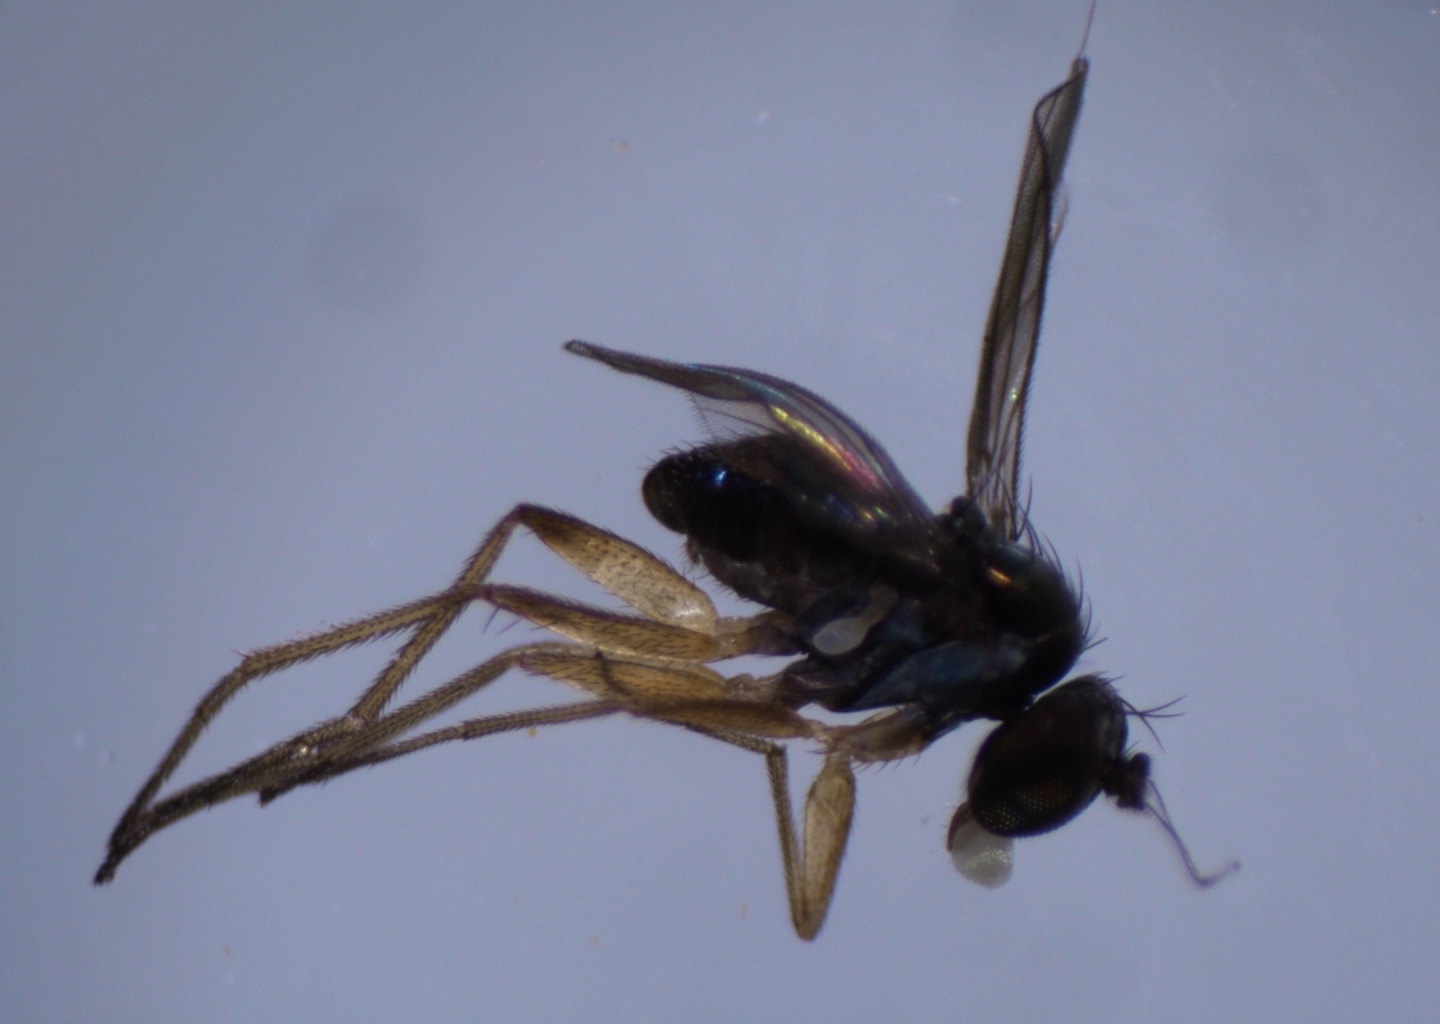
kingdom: Animalia
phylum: Arthropoda
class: Insecta
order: Diptera
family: Dolichopodidae
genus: Chrysotus
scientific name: Chrysotus crosbyi
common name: Longlegged fly
